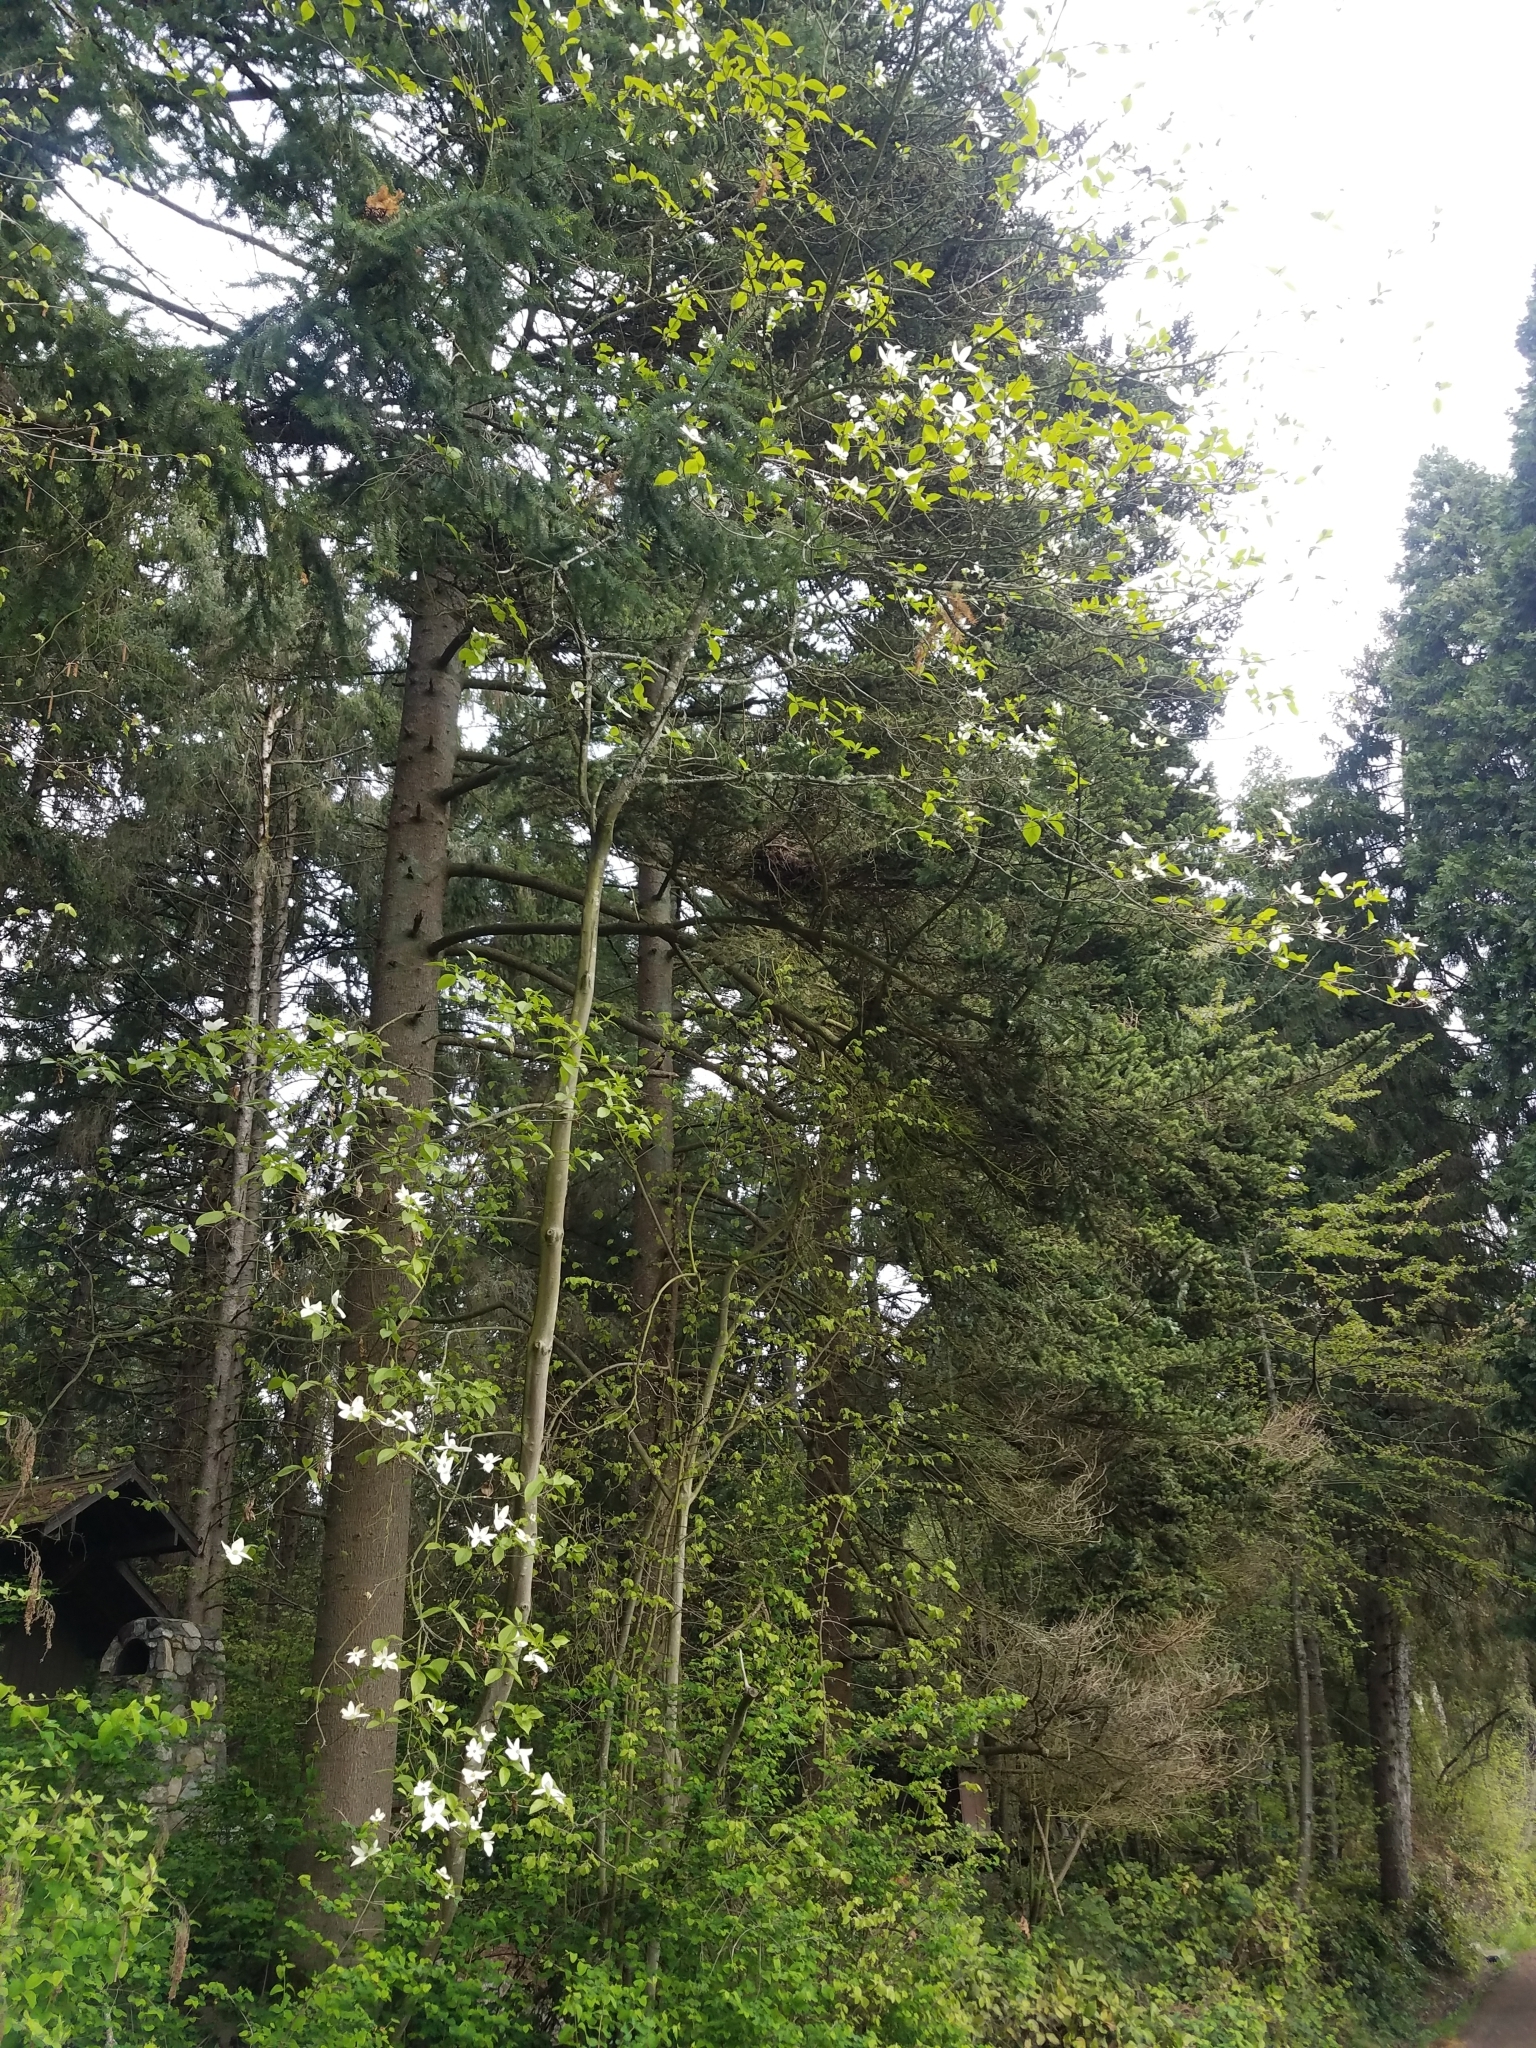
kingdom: Plantae
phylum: Tracheophyta
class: Magnoliopsida
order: Cornales
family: Cornaceae
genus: Cornus
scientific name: Cornus nuttallii
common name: Pacific dogwood
